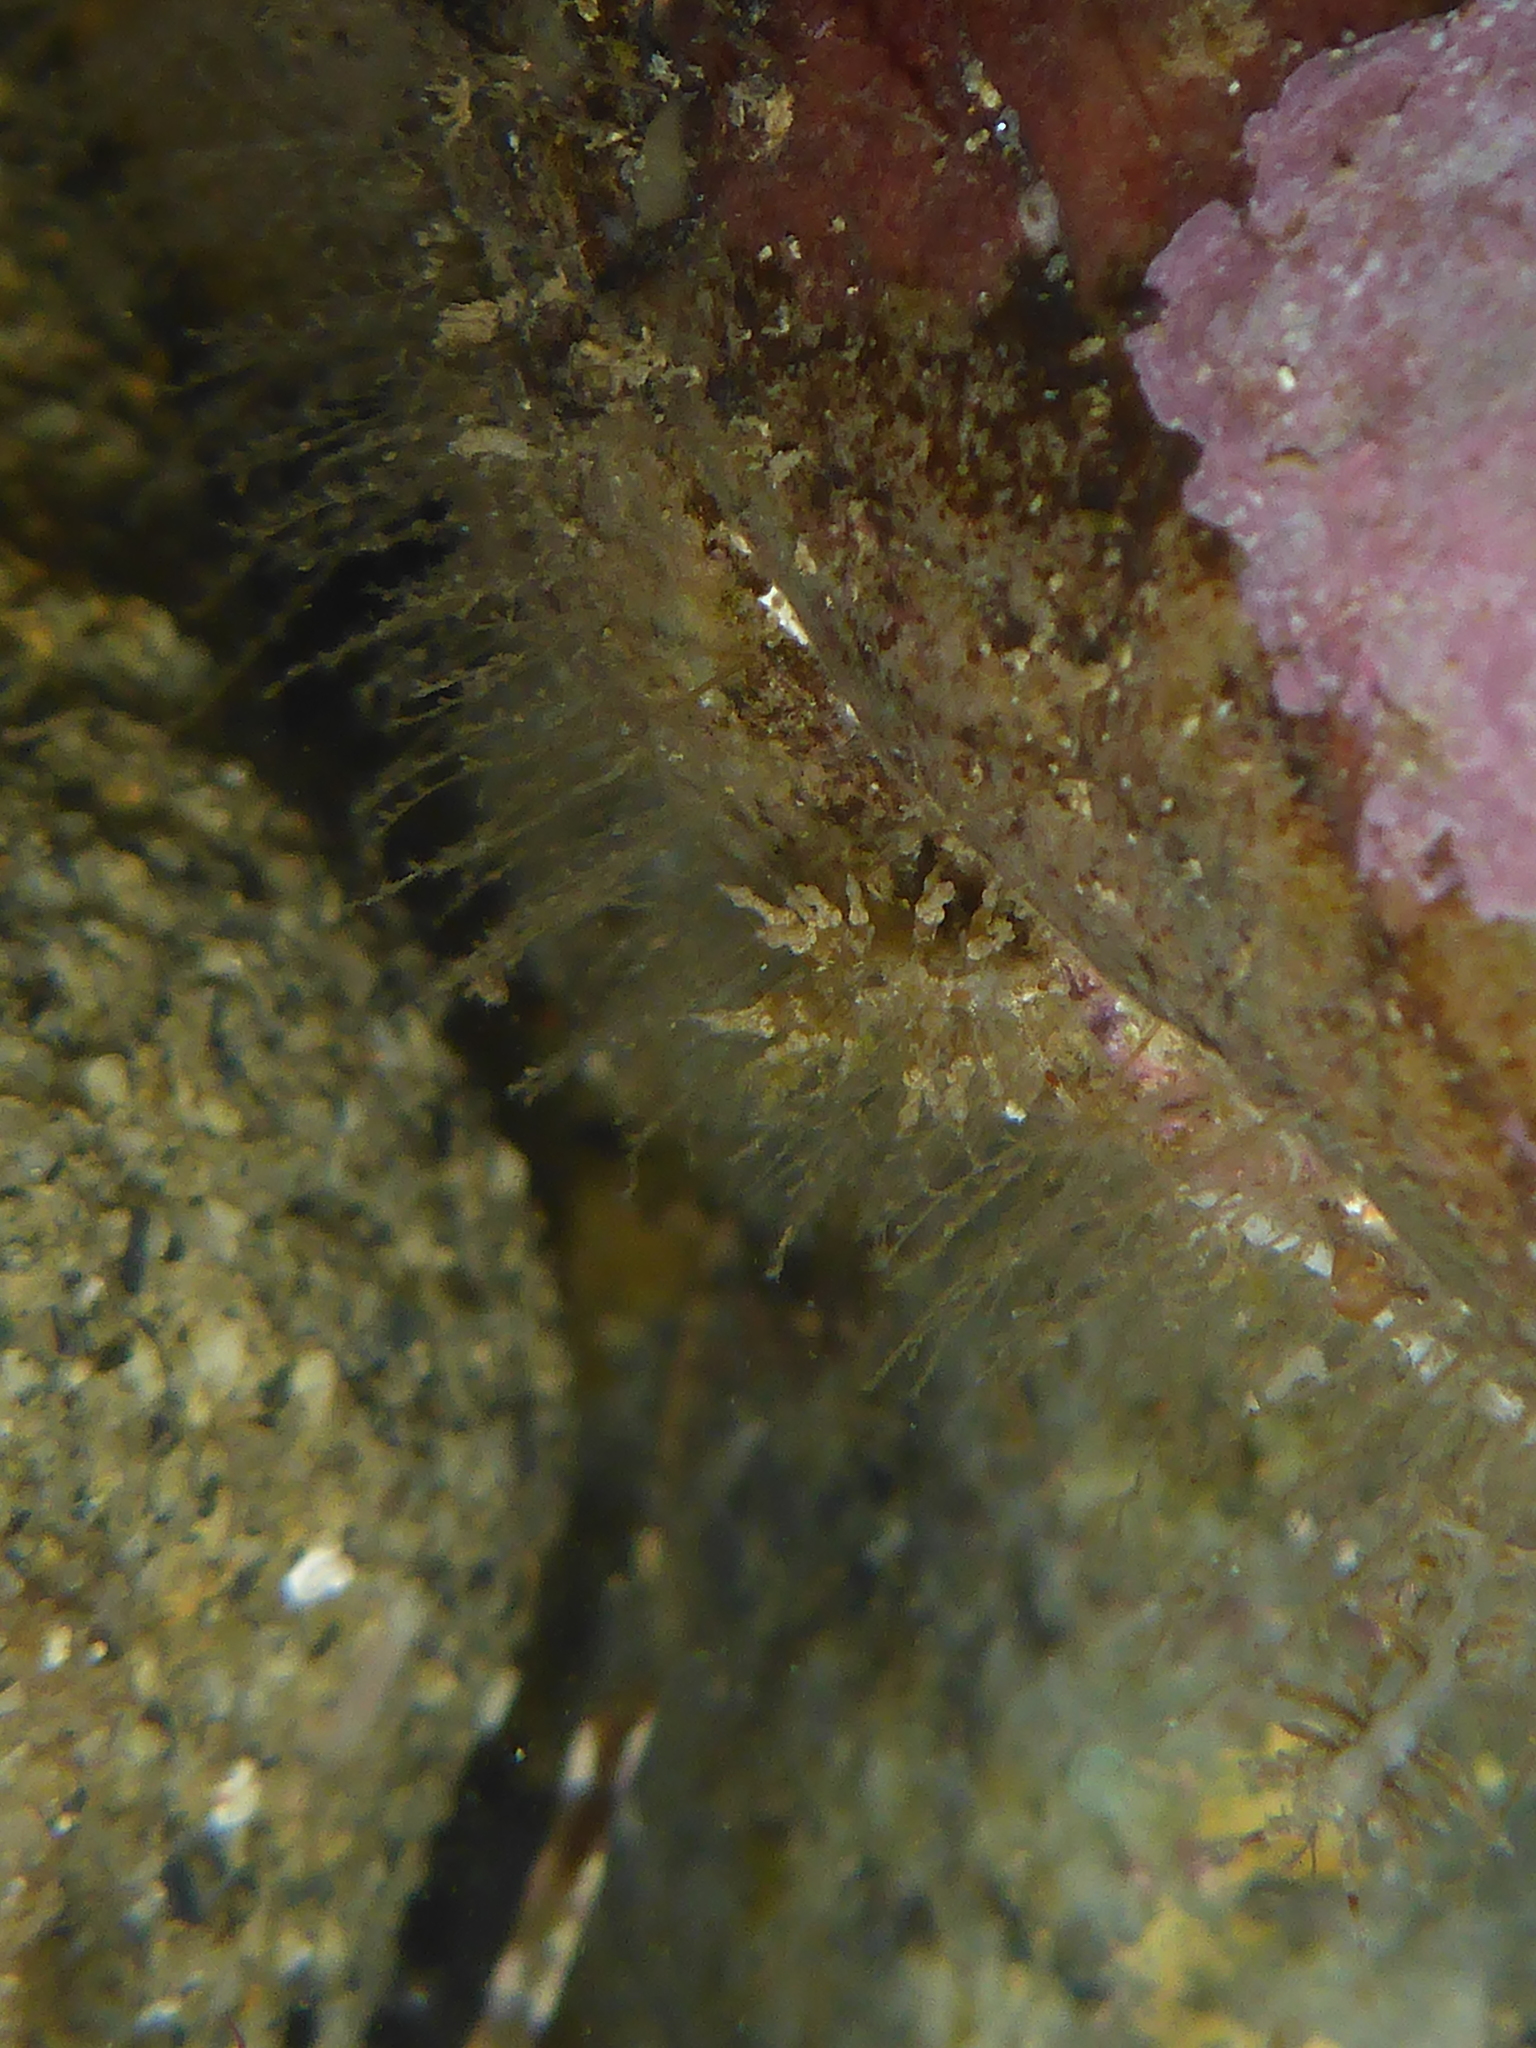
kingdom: Animalia
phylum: Mollusca
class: Gastropoda
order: Nudibranchia
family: Eubranchidae
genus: Eubranchus
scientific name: Eubranchus rustyus
